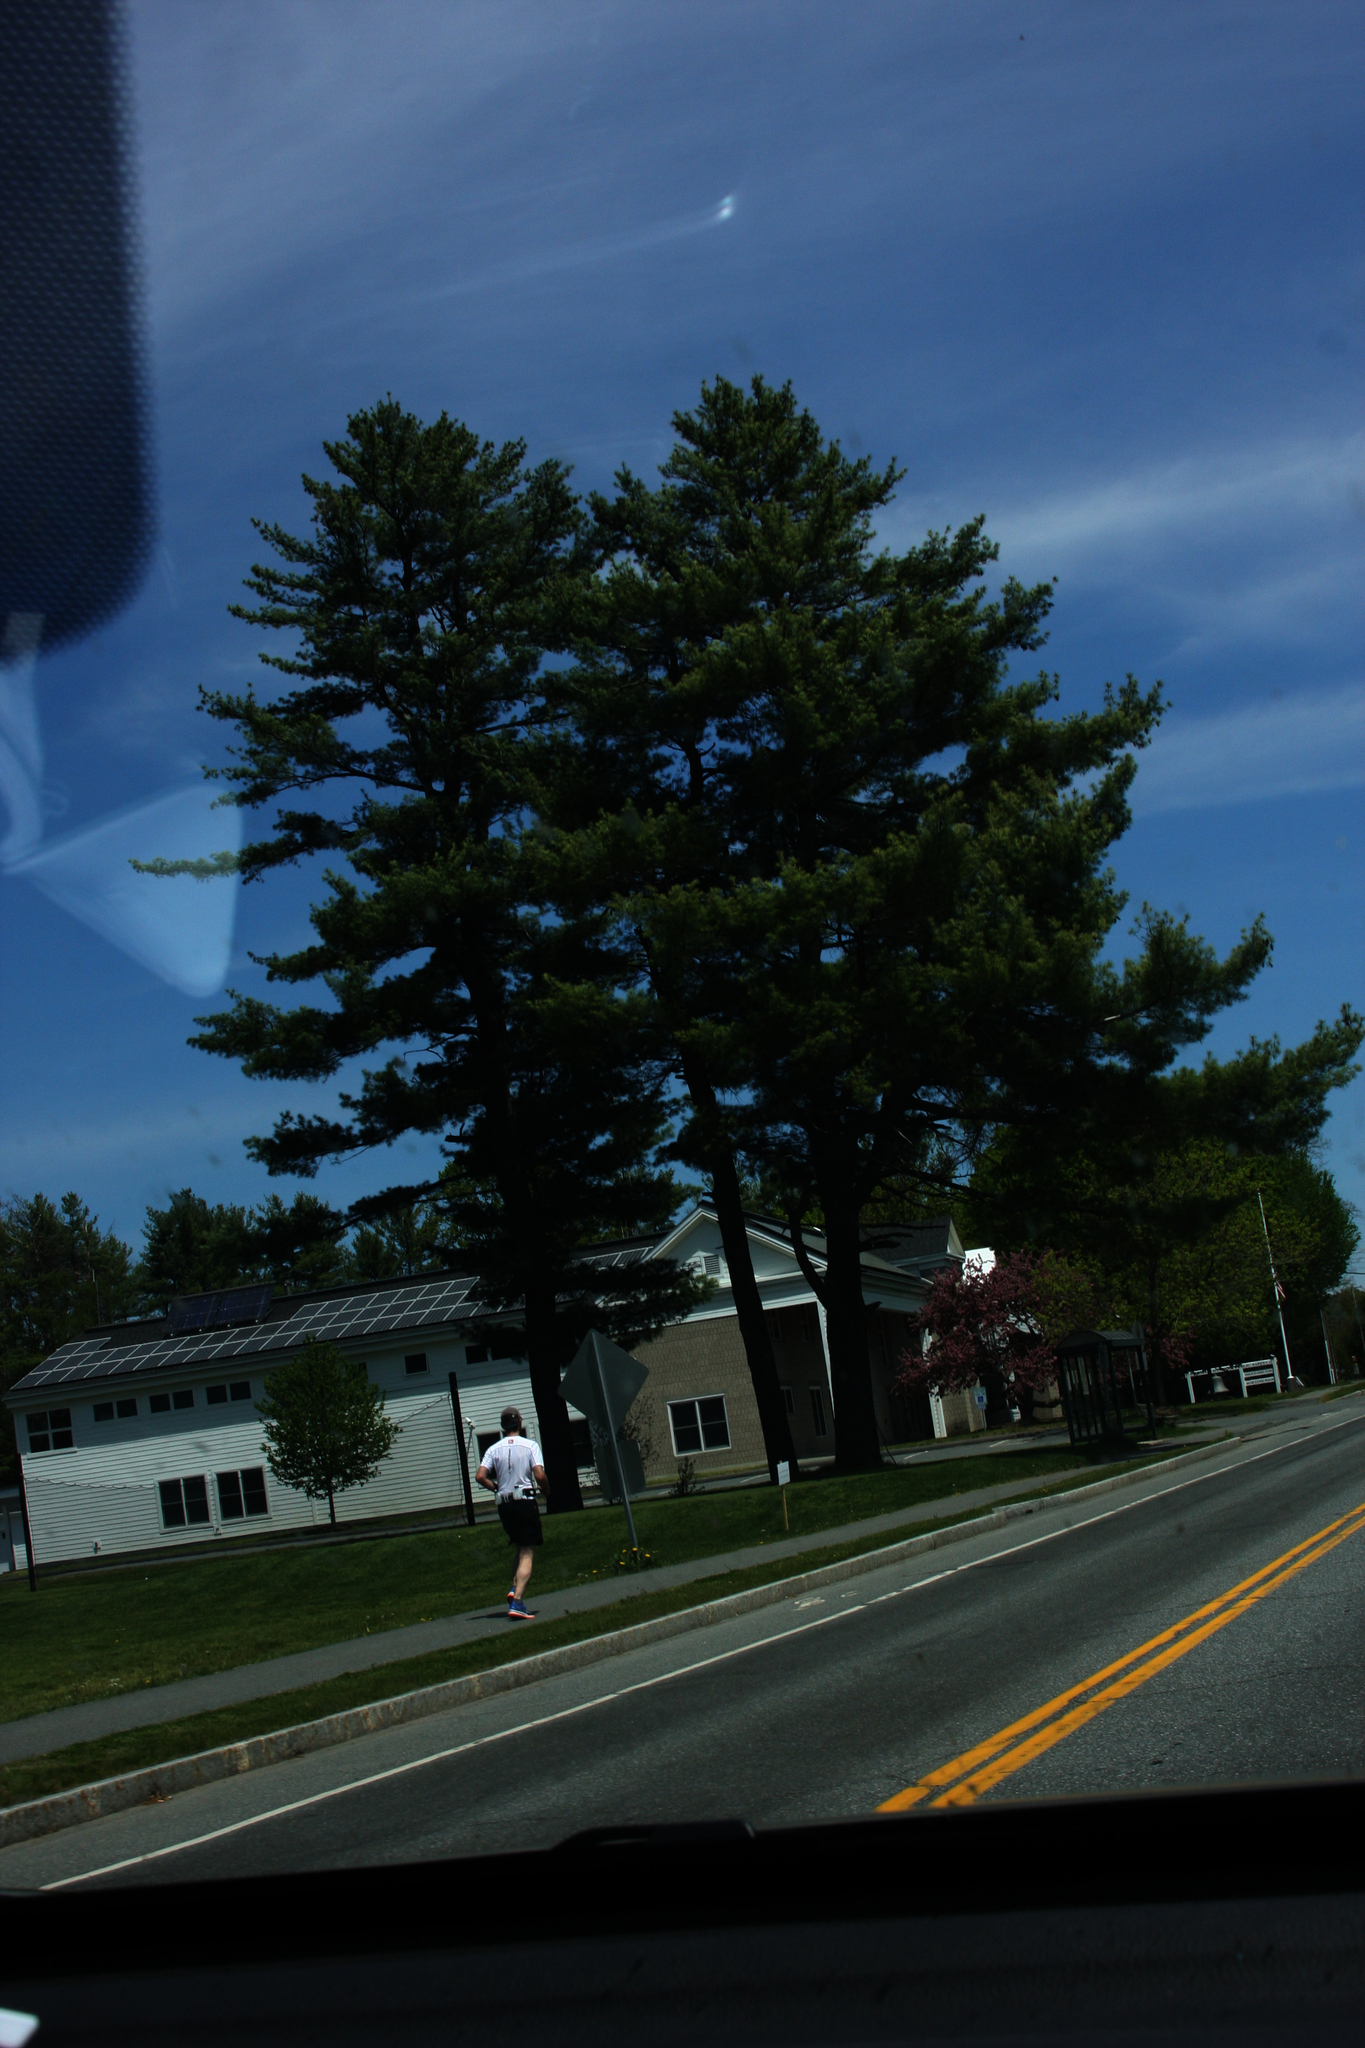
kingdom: Plantae
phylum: Tracheophyta
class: Pinopsida
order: Pinales
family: Pinaceae
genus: Pinus
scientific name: Pinus strobus
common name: Weymouth pine
